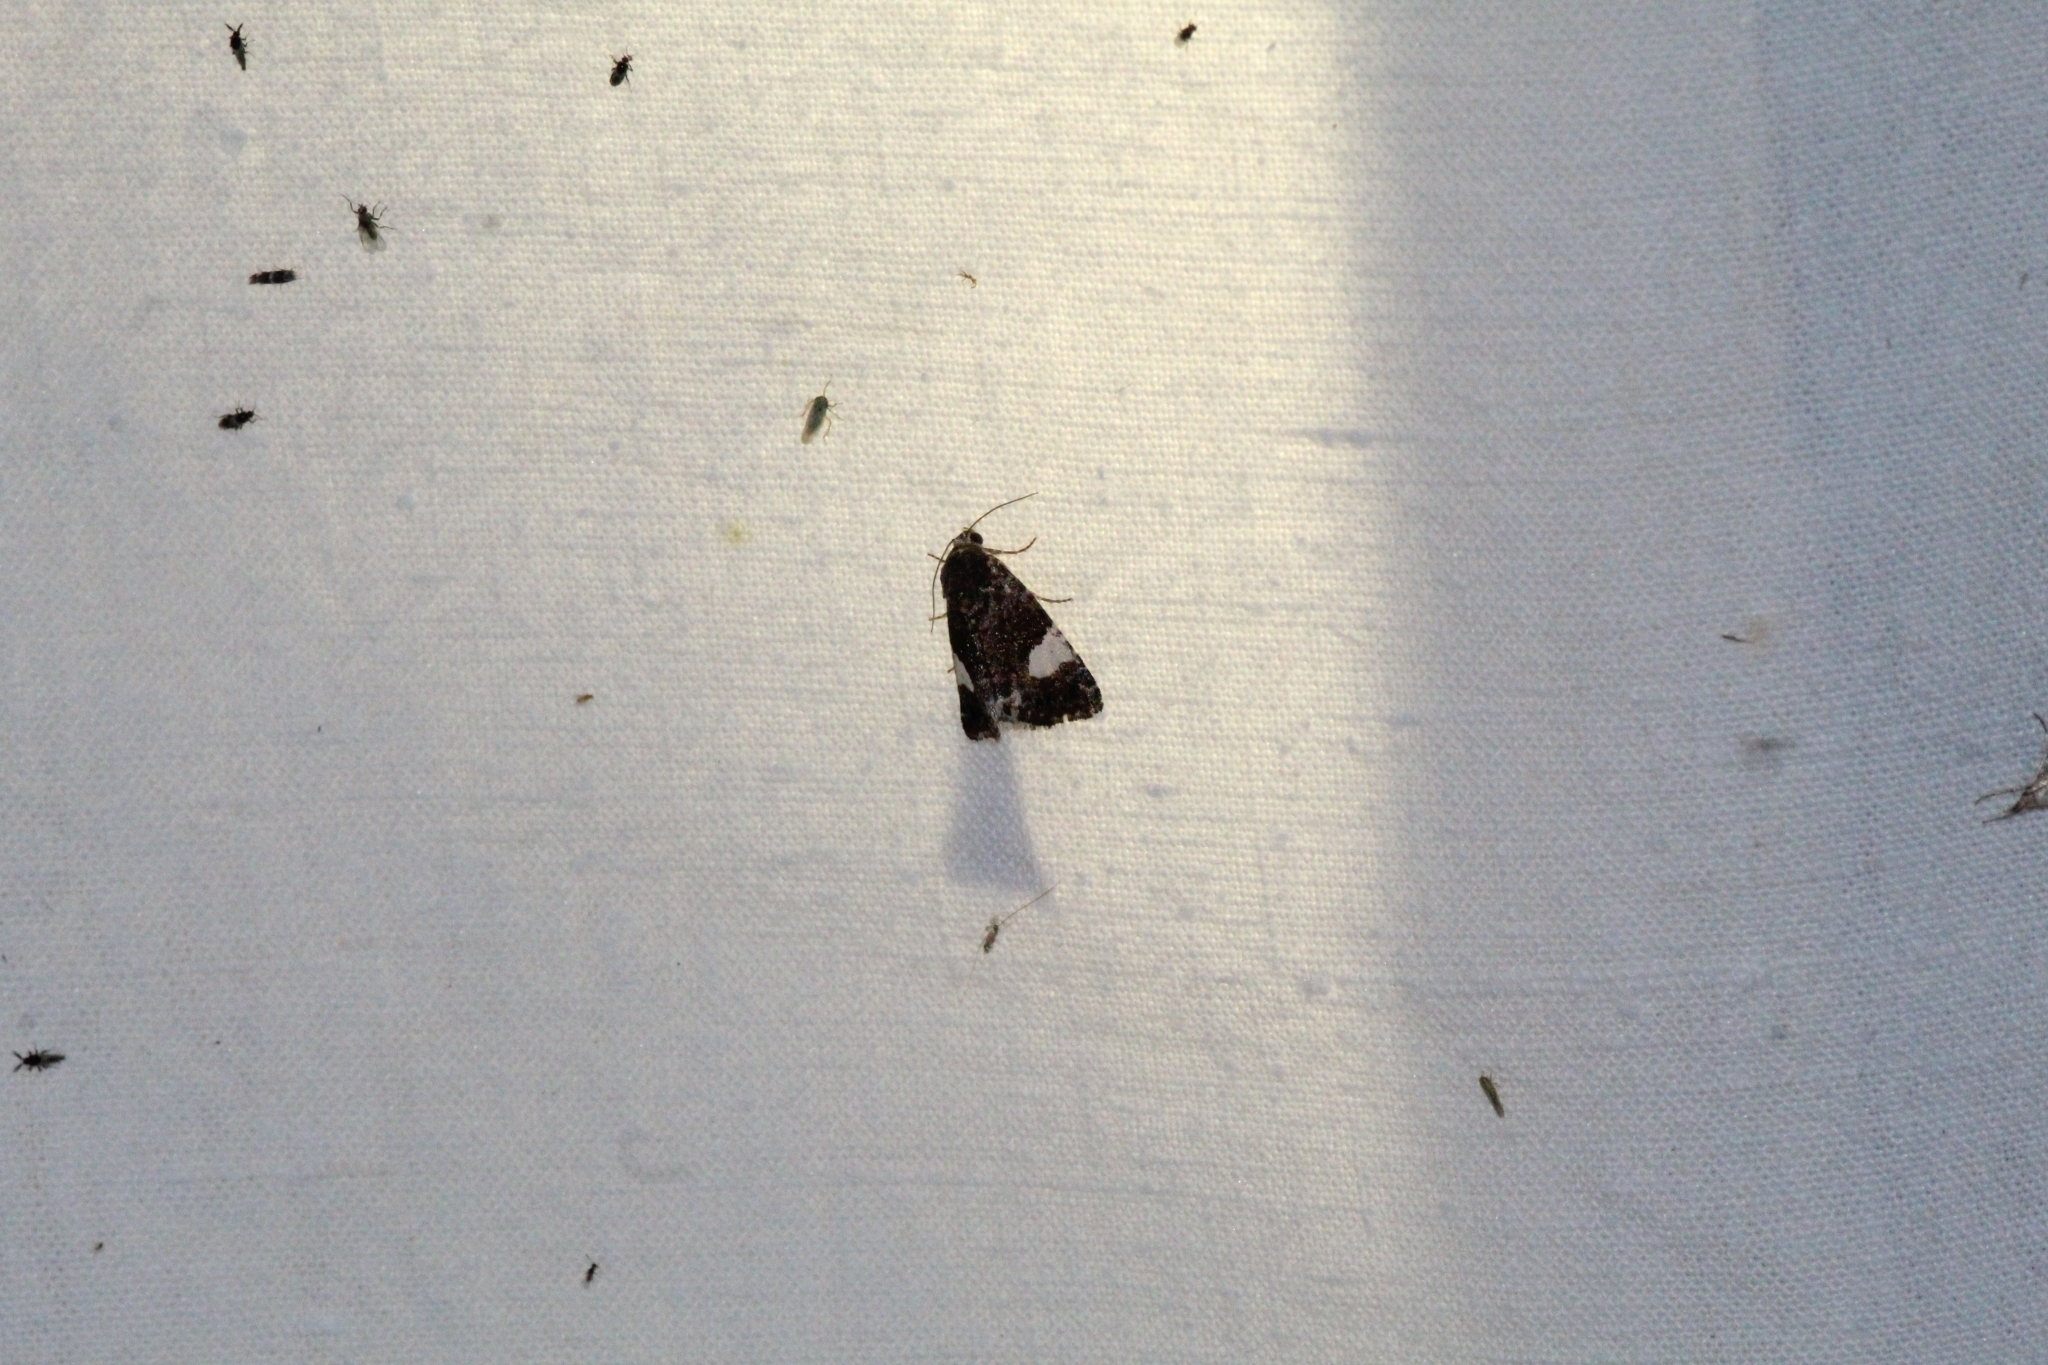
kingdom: Animalia
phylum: Arthropoda
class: Insecta
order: Lepidoptera
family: Erebidae
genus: Tyta
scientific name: Tyta luctuosa
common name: Four-spotted
